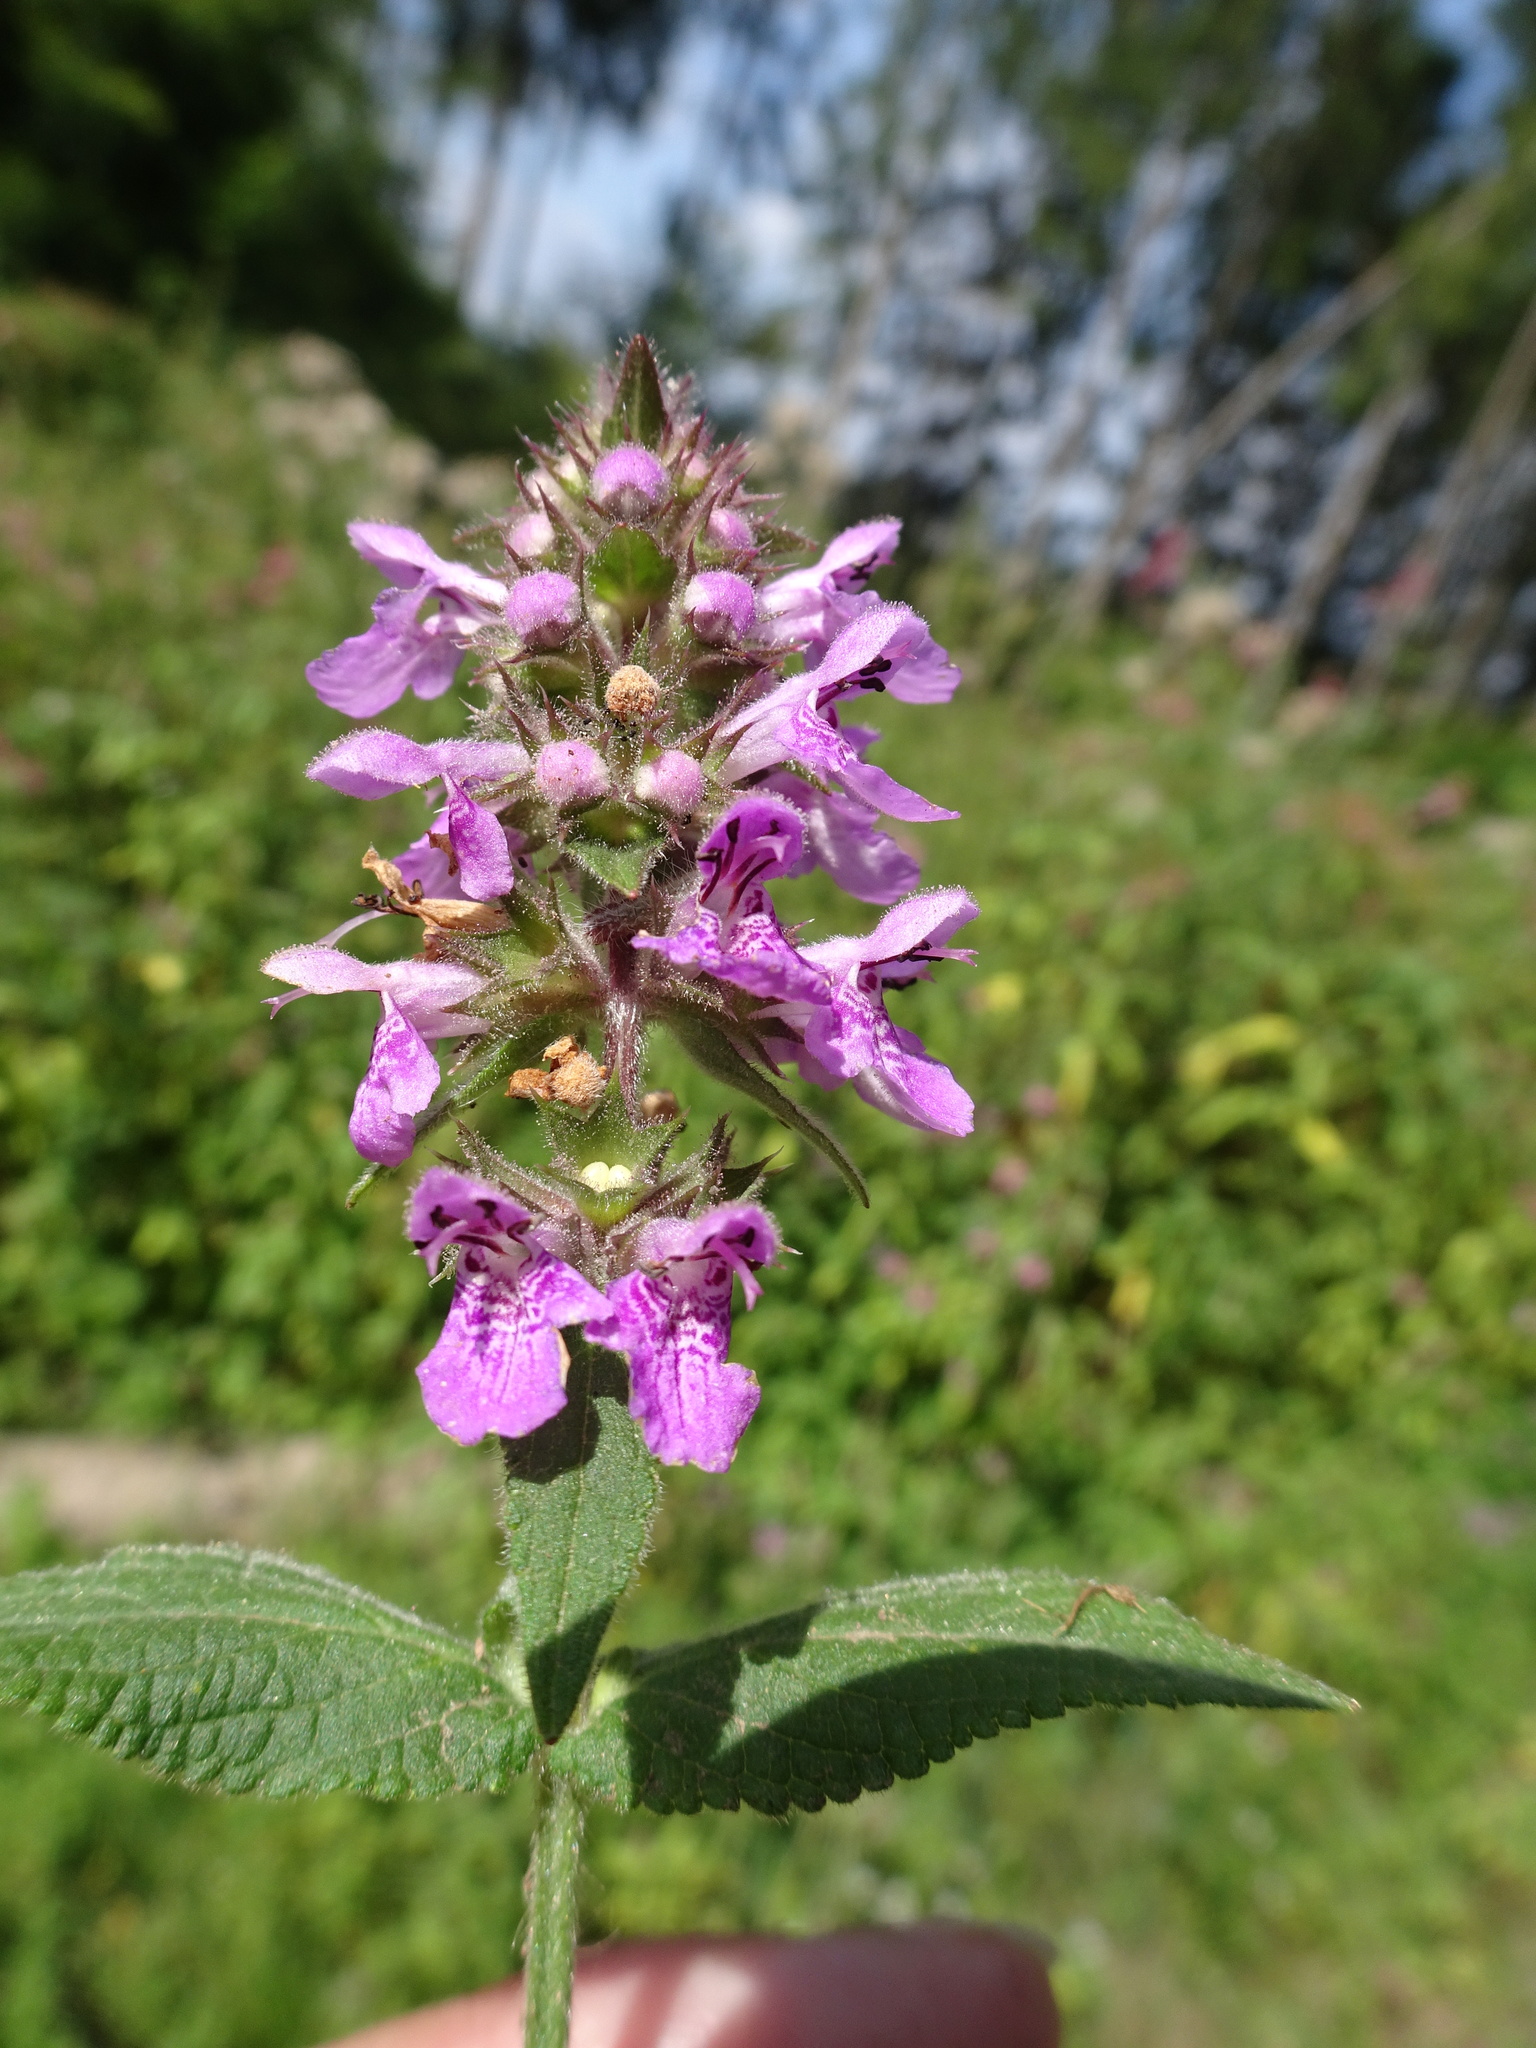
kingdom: Plantae
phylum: Tracheophyta
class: Magnoliopsida
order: Lamiales
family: Lamiaceae
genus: Stachys
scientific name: Stachys palustris
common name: Marsh woundwort
